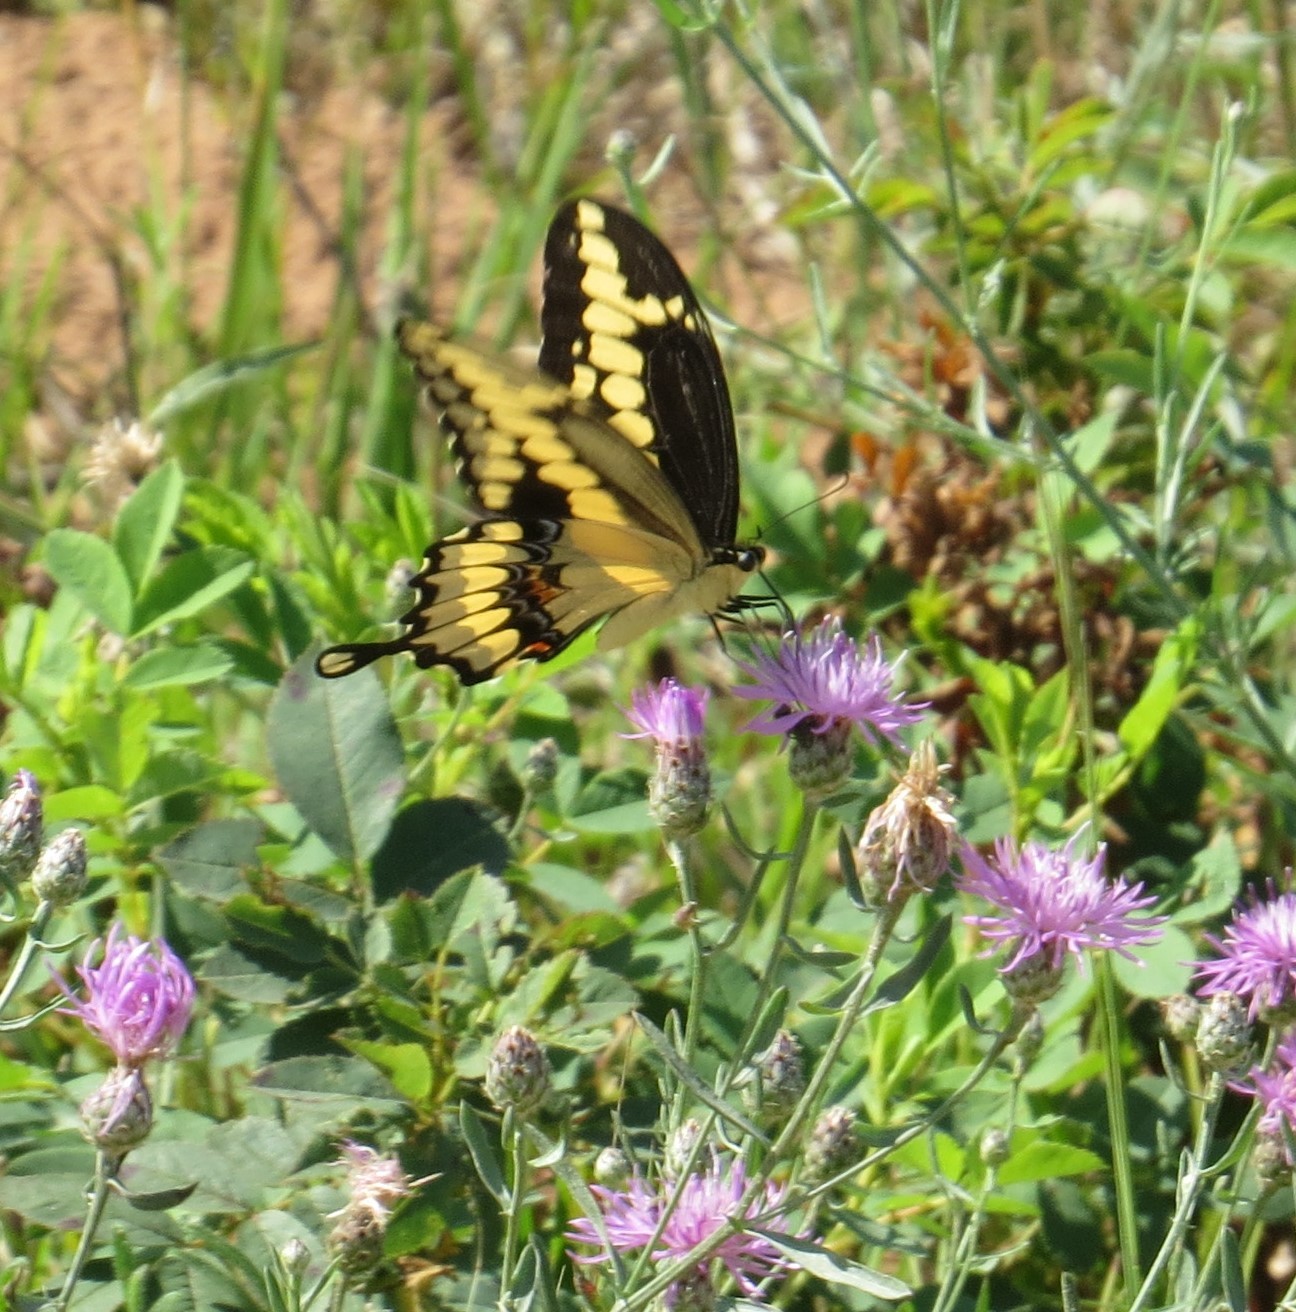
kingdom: Animalia
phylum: Arthropoda
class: Insecta
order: Lepidoptera
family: Papilionidae
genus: Papilio
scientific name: Papilio cresphontes
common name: Giant swallowtail
